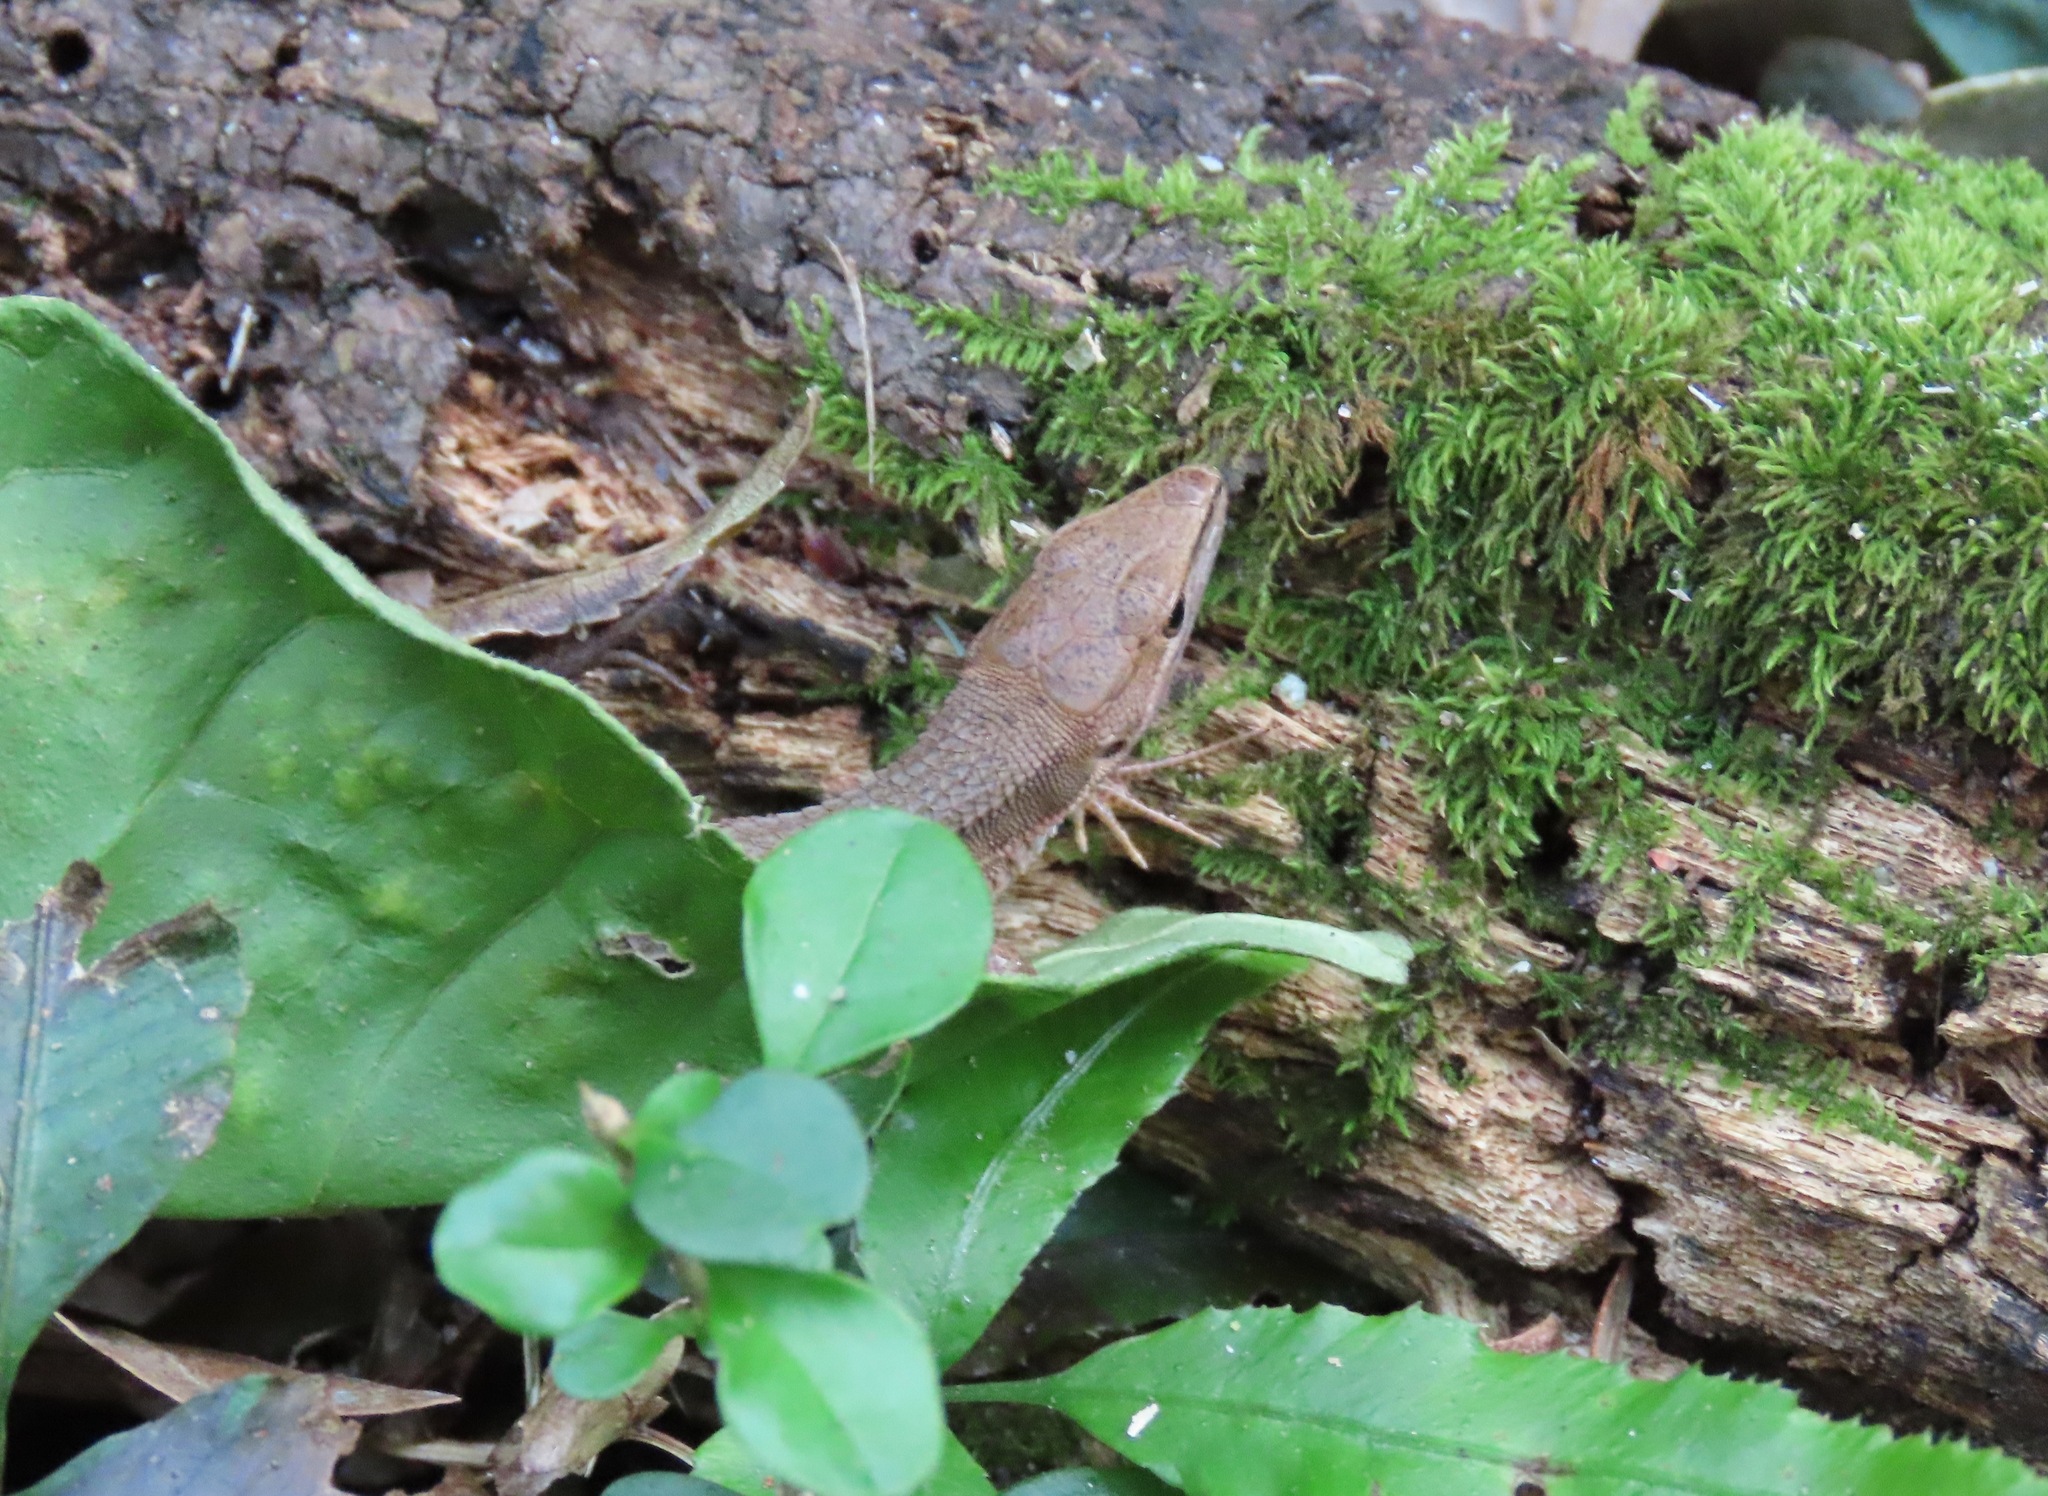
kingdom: Animalia
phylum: Chordata
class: Squamata
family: Lacertidae
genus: Takydromus
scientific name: Takydromus tachydromoides
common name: Japanese grass lizard
